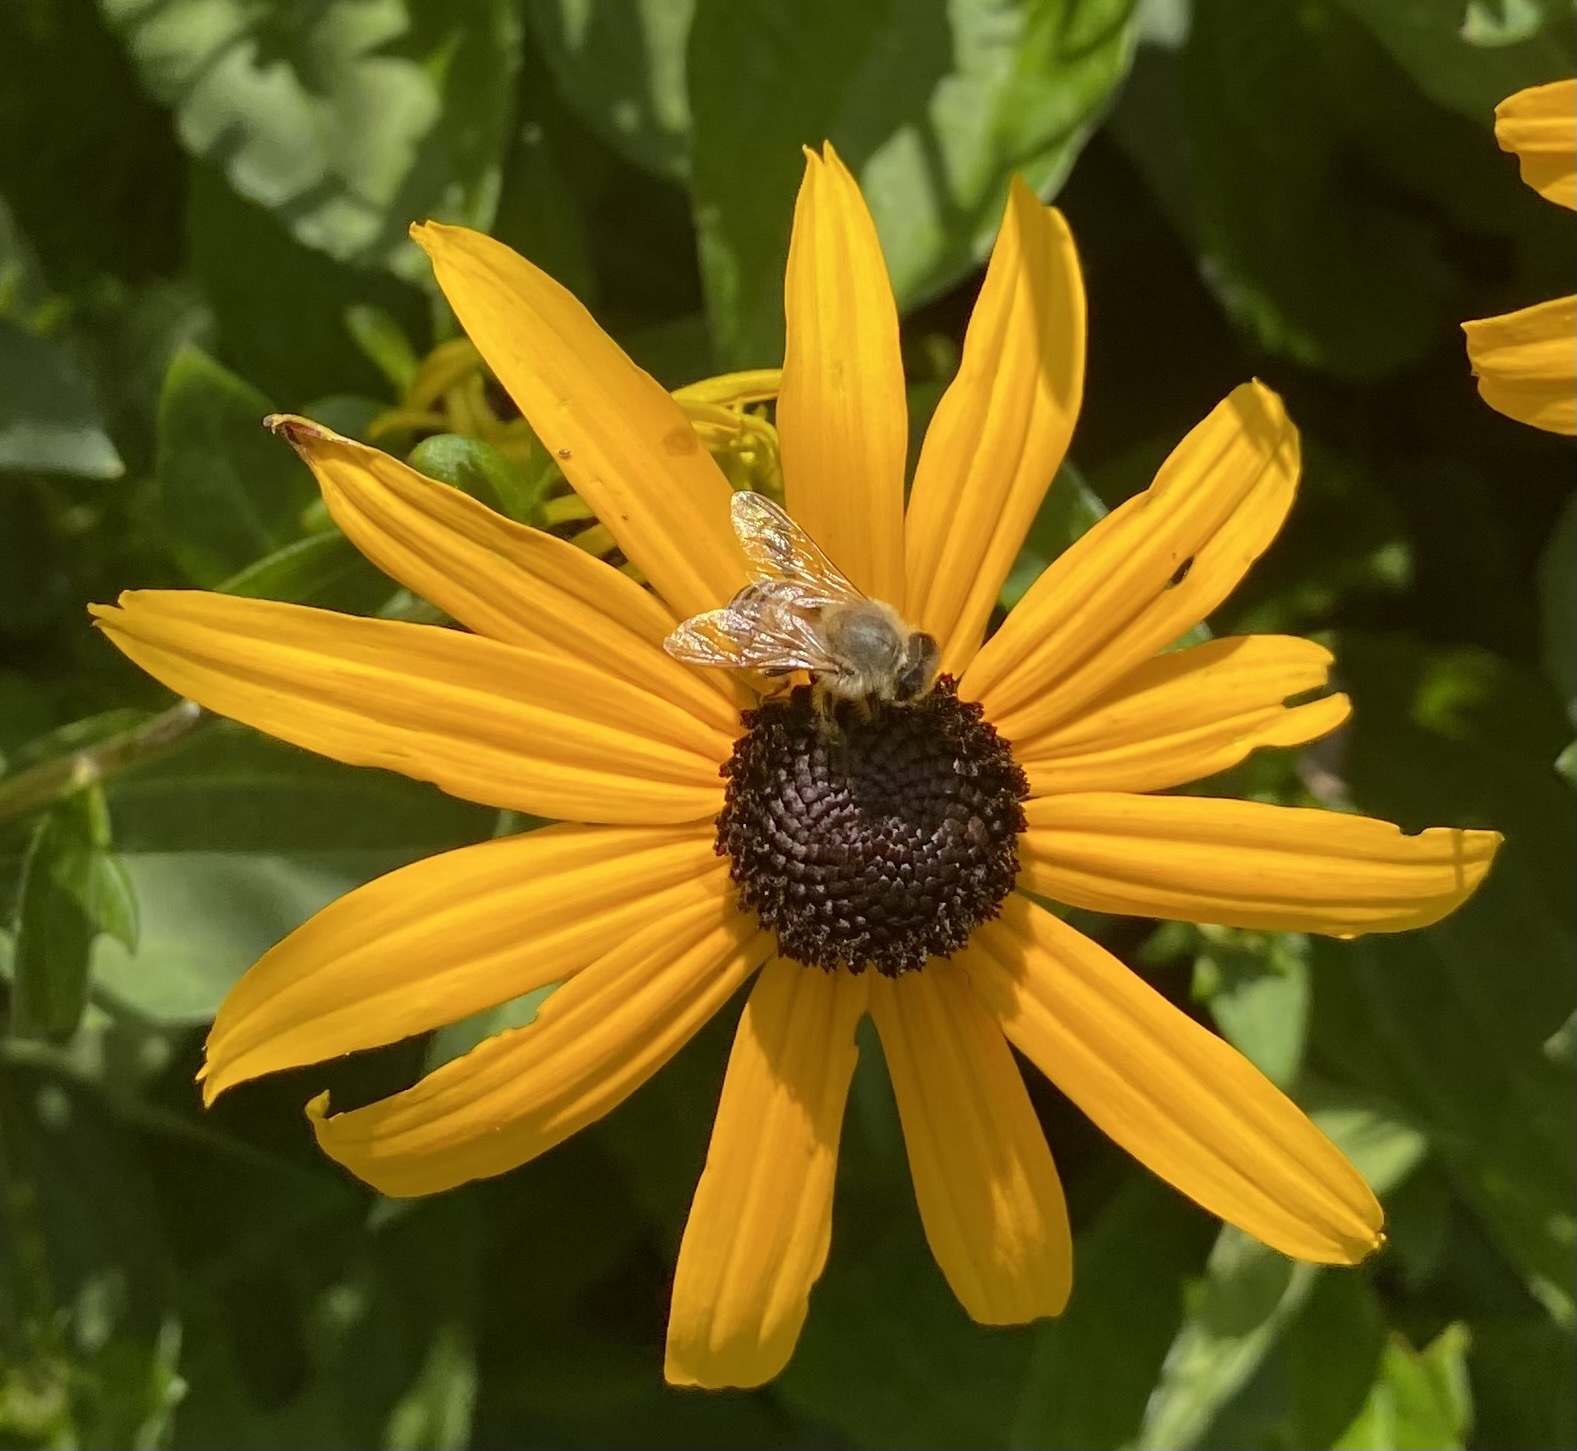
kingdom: Animalia
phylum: Arthropoda
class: Insecta
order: Hymenoptera
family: Apidae
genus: Apis
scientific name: Apis mellifera
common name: Honey bee
